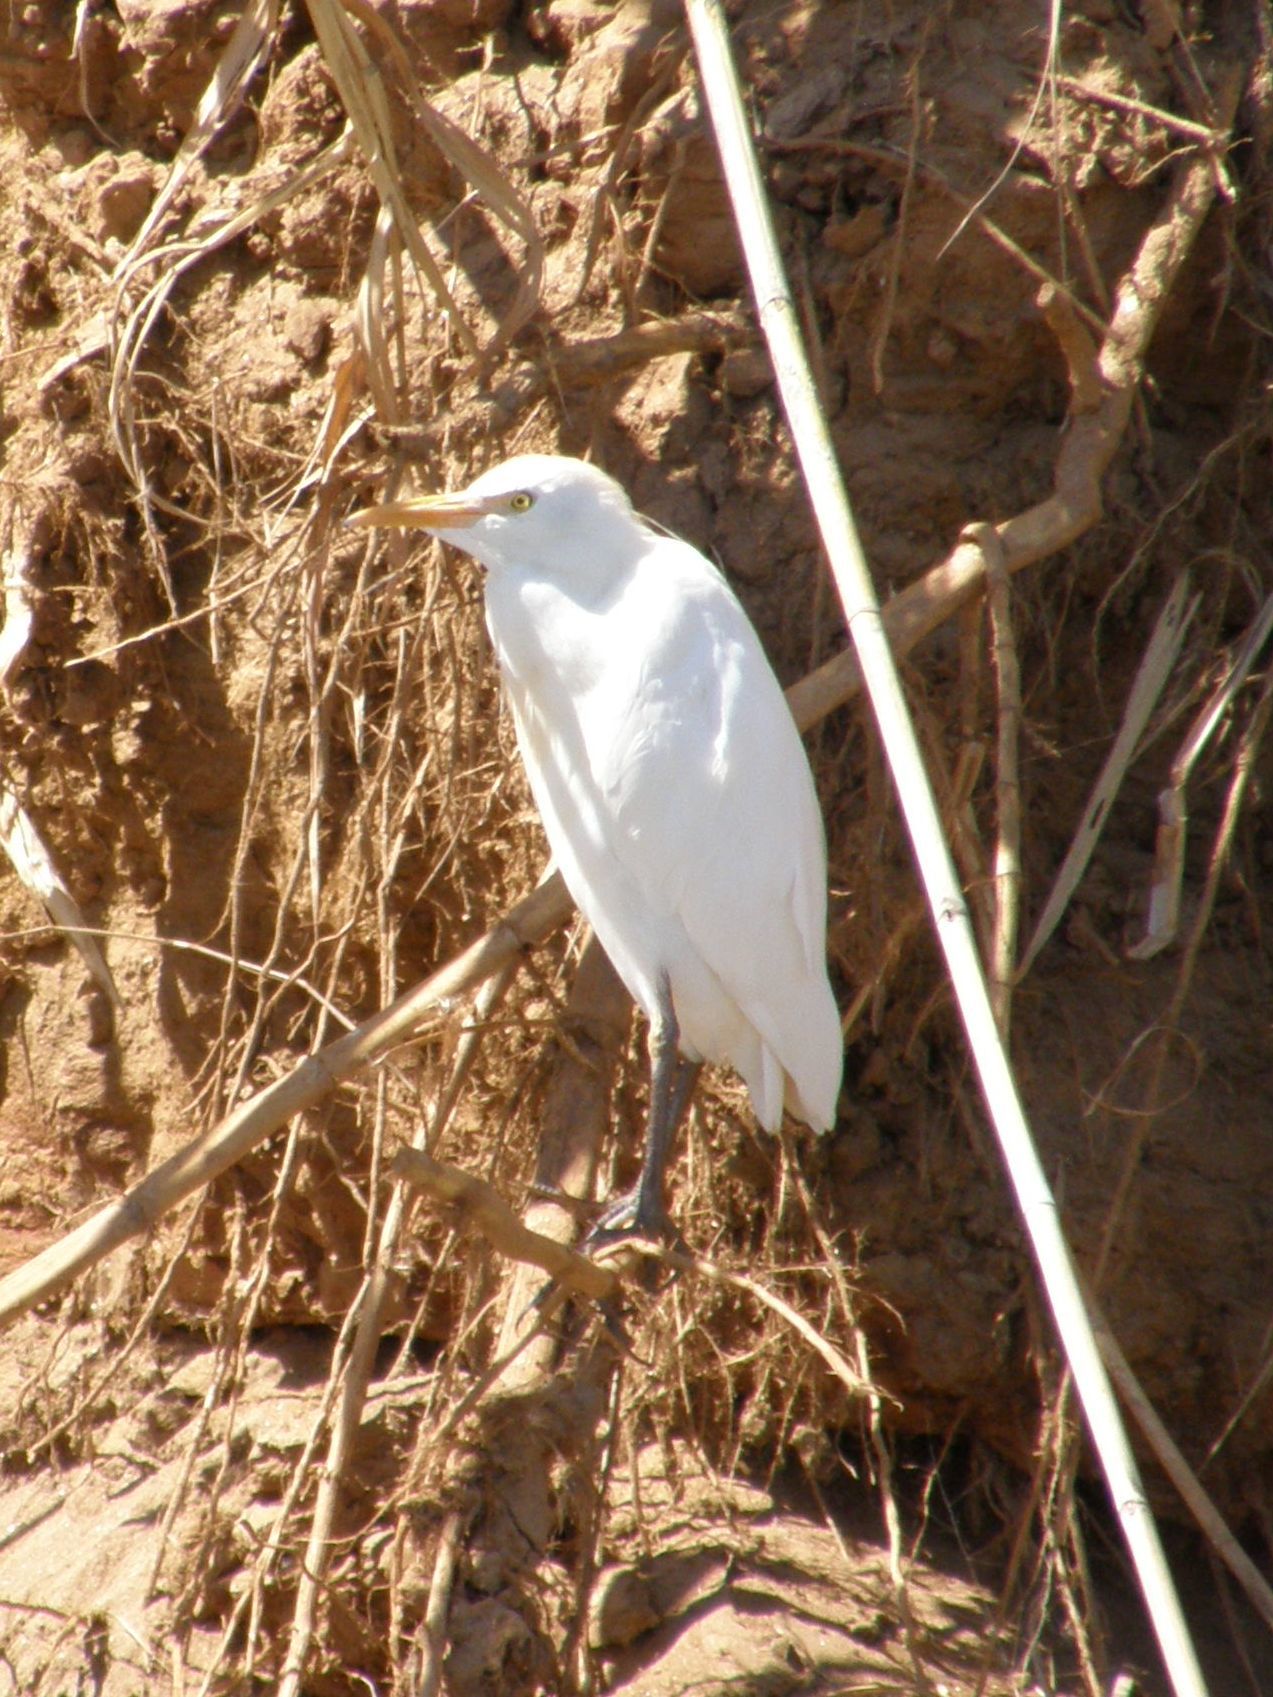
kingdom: Animalia
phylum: Chordata
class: Aves
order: Pelecaniformes
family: Ardeidae
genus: Bubulcus
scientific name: Bubulcus ibis
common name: Cattle egret
